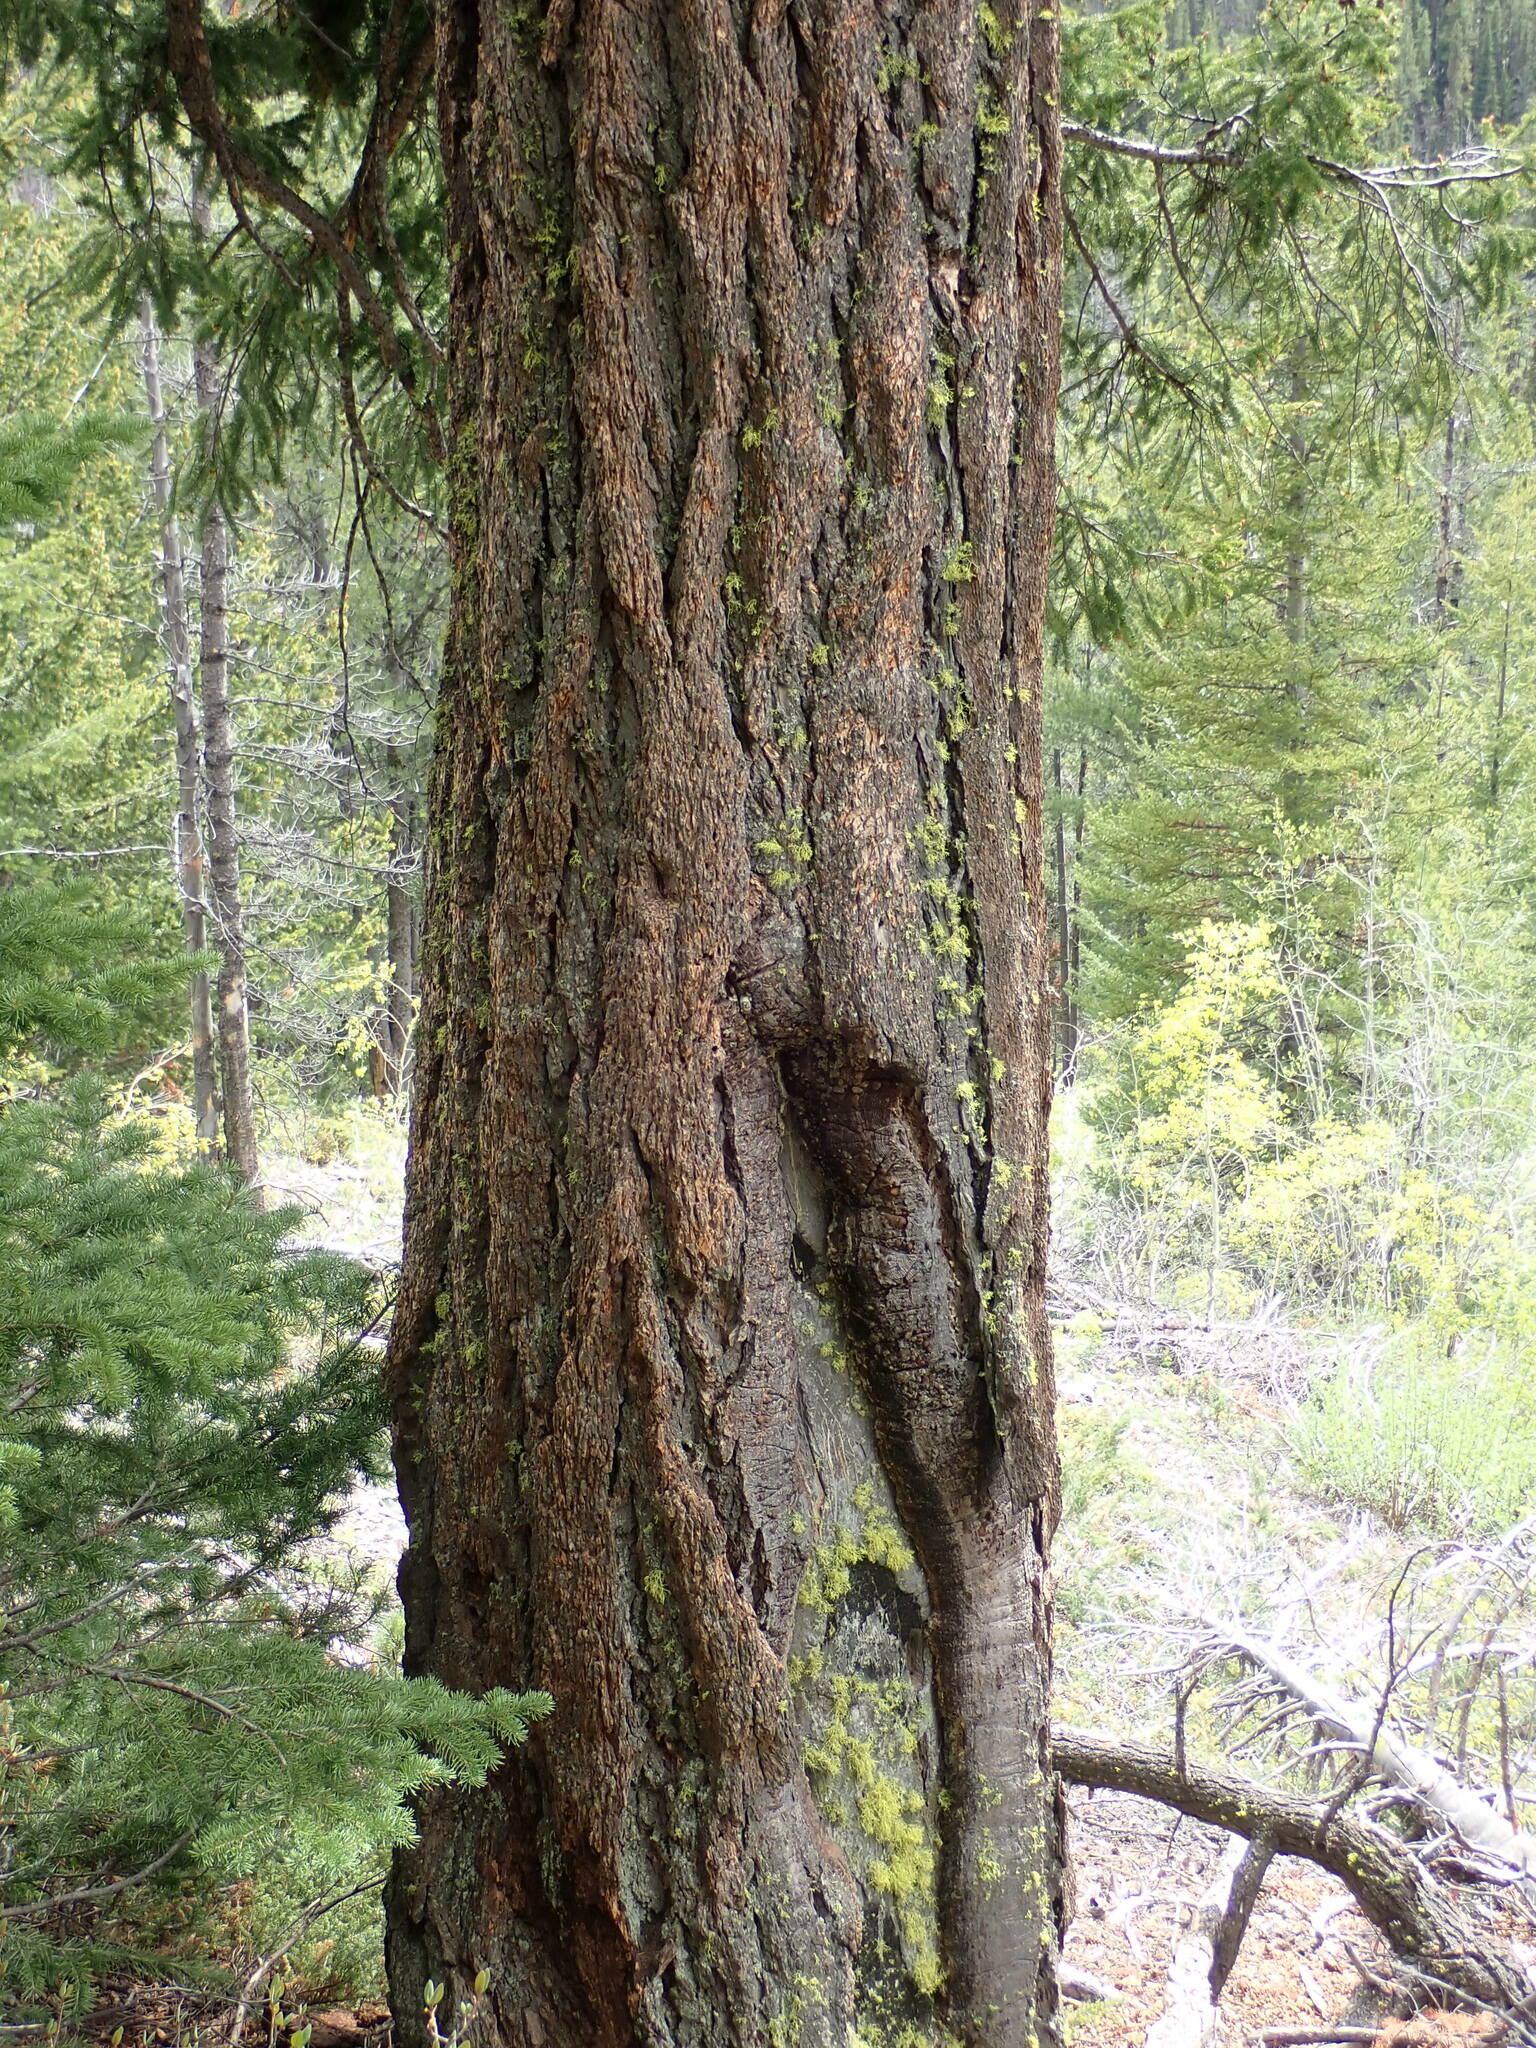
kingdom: Plantae
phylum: Tracheophyta
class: Pinopsida
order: Pinales
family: Pinaceae
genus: Pseudotsuga
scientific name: Pseudotsuga menziesii
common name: Douglas fir
